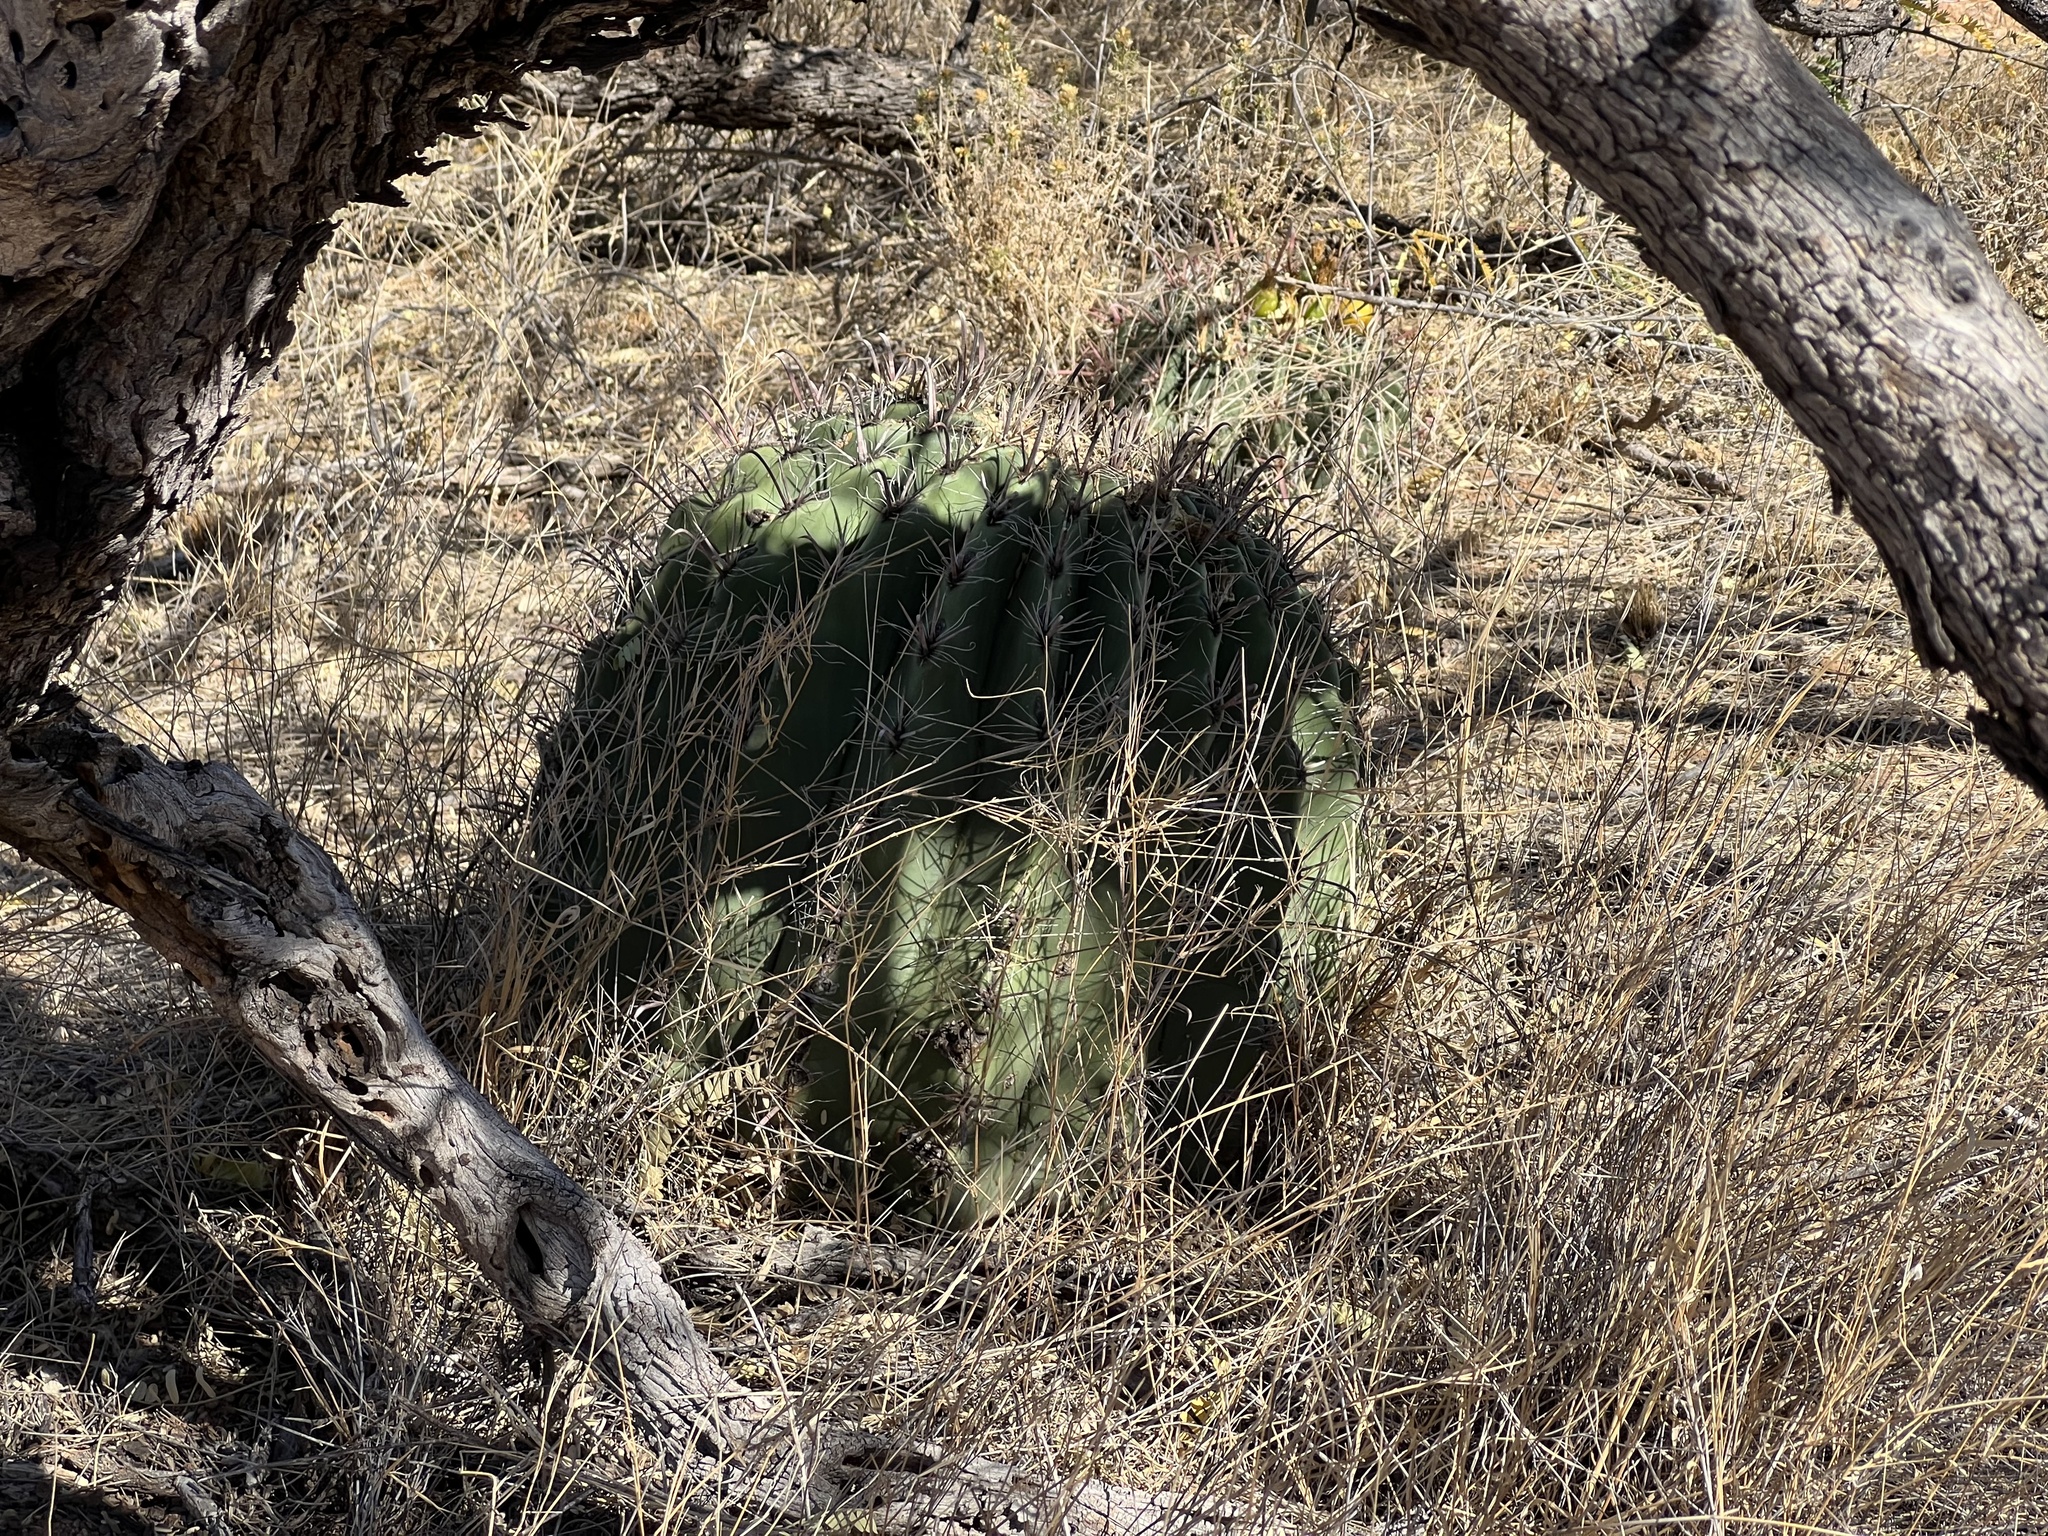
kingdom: Plantae
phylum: Tracheophyta
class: Magnoliopsida
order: Caryophyllales
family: Cactaceae
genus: Ferocactus
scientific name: Ferocactus wislizeni
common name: Candy barrel cactus
